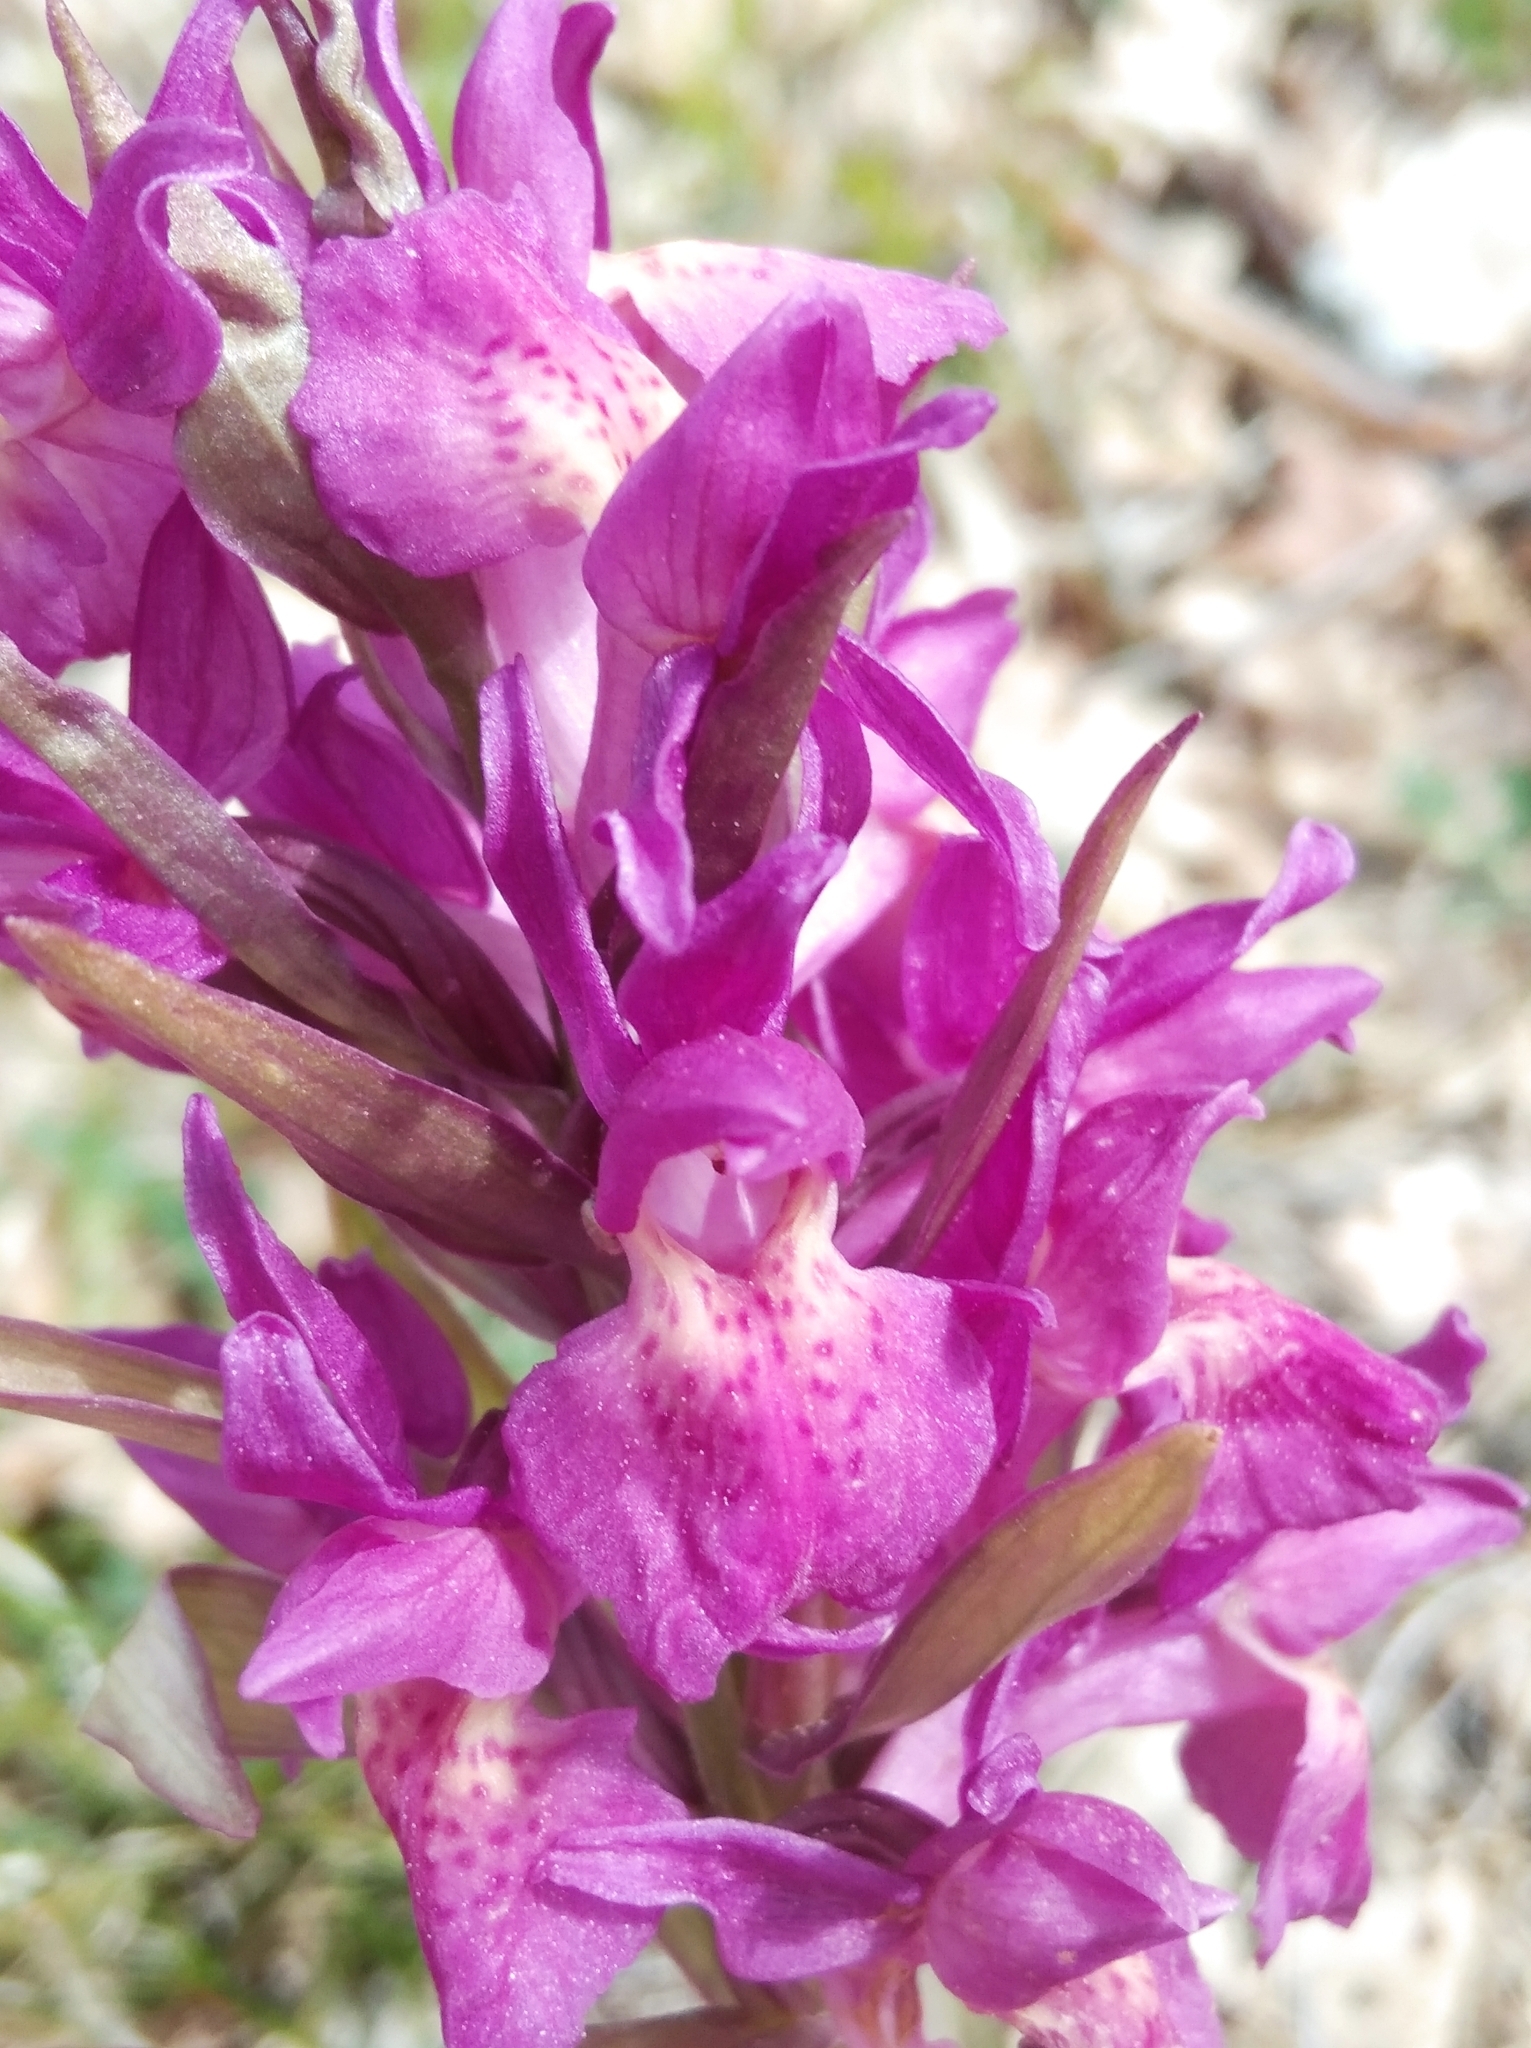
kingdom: Plantae
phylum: Tracheophyta
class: Liliopsida
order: Asparagales
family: Orchidaceae
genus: Dactylorhiza
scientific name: Dactylorhiza sambucina
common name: Elder-flowered orchid
